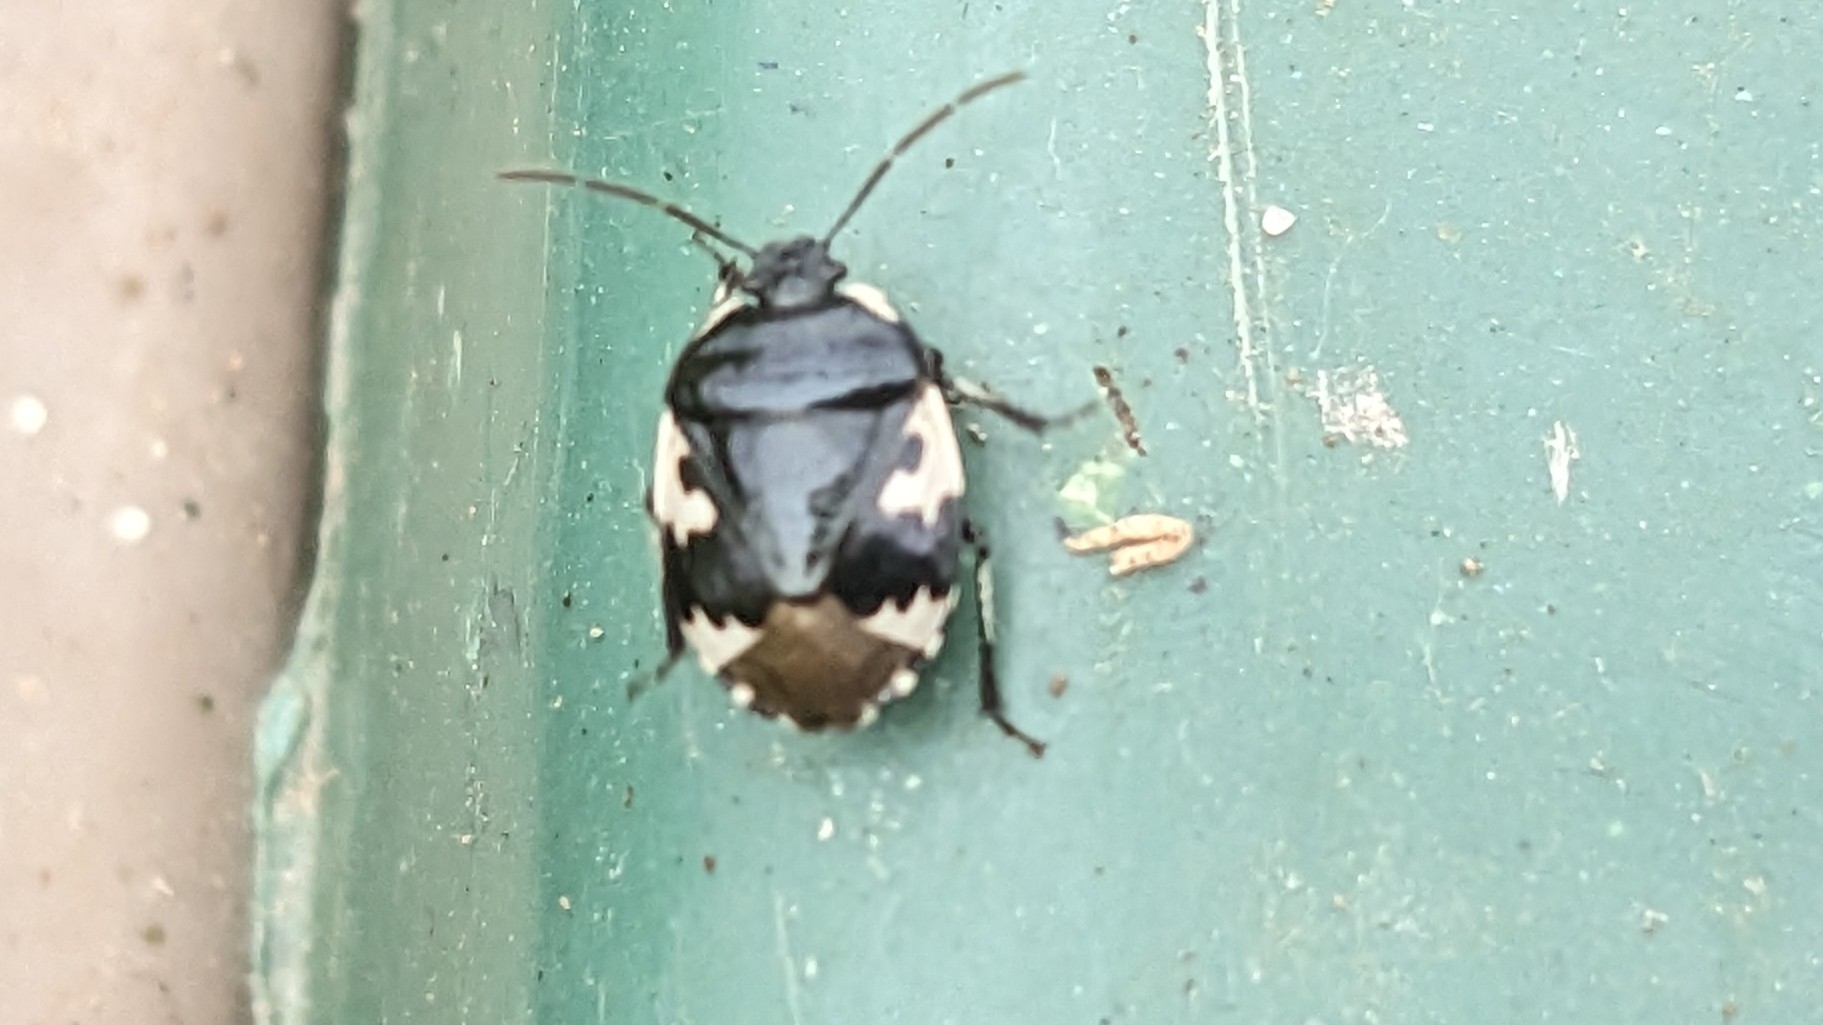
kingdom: Animalia
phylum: Arthropoda
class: Insecta
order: Hemiptera
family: Cydnidae
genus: Tritomegas
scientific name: Tritomegas bicolor
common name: Pied shieldbug
